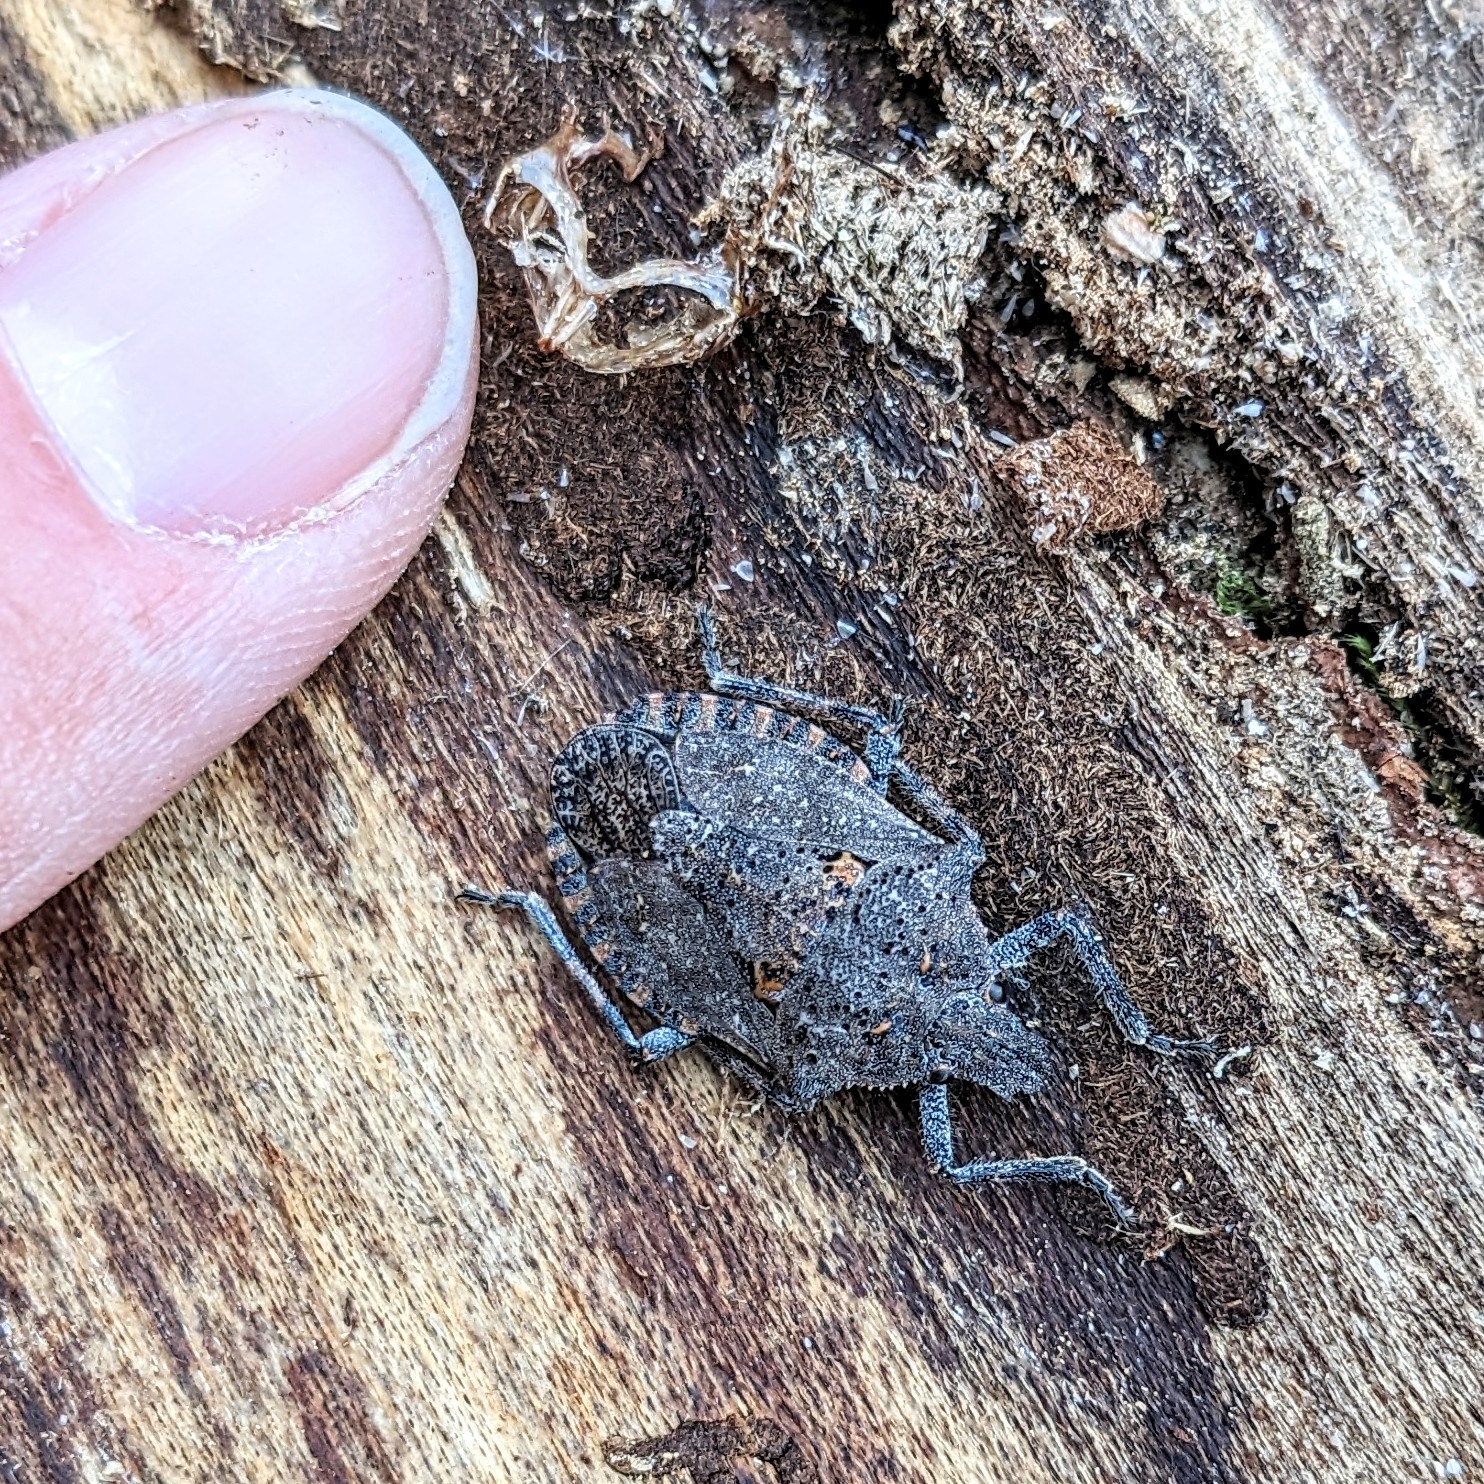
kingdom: Animalia
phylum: Arthropoda
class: Insecta
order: Hemiptera
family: Pentatomidae
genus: Brochymena
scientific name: Brochymena quadripustulata
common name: Four-humped stink bug
